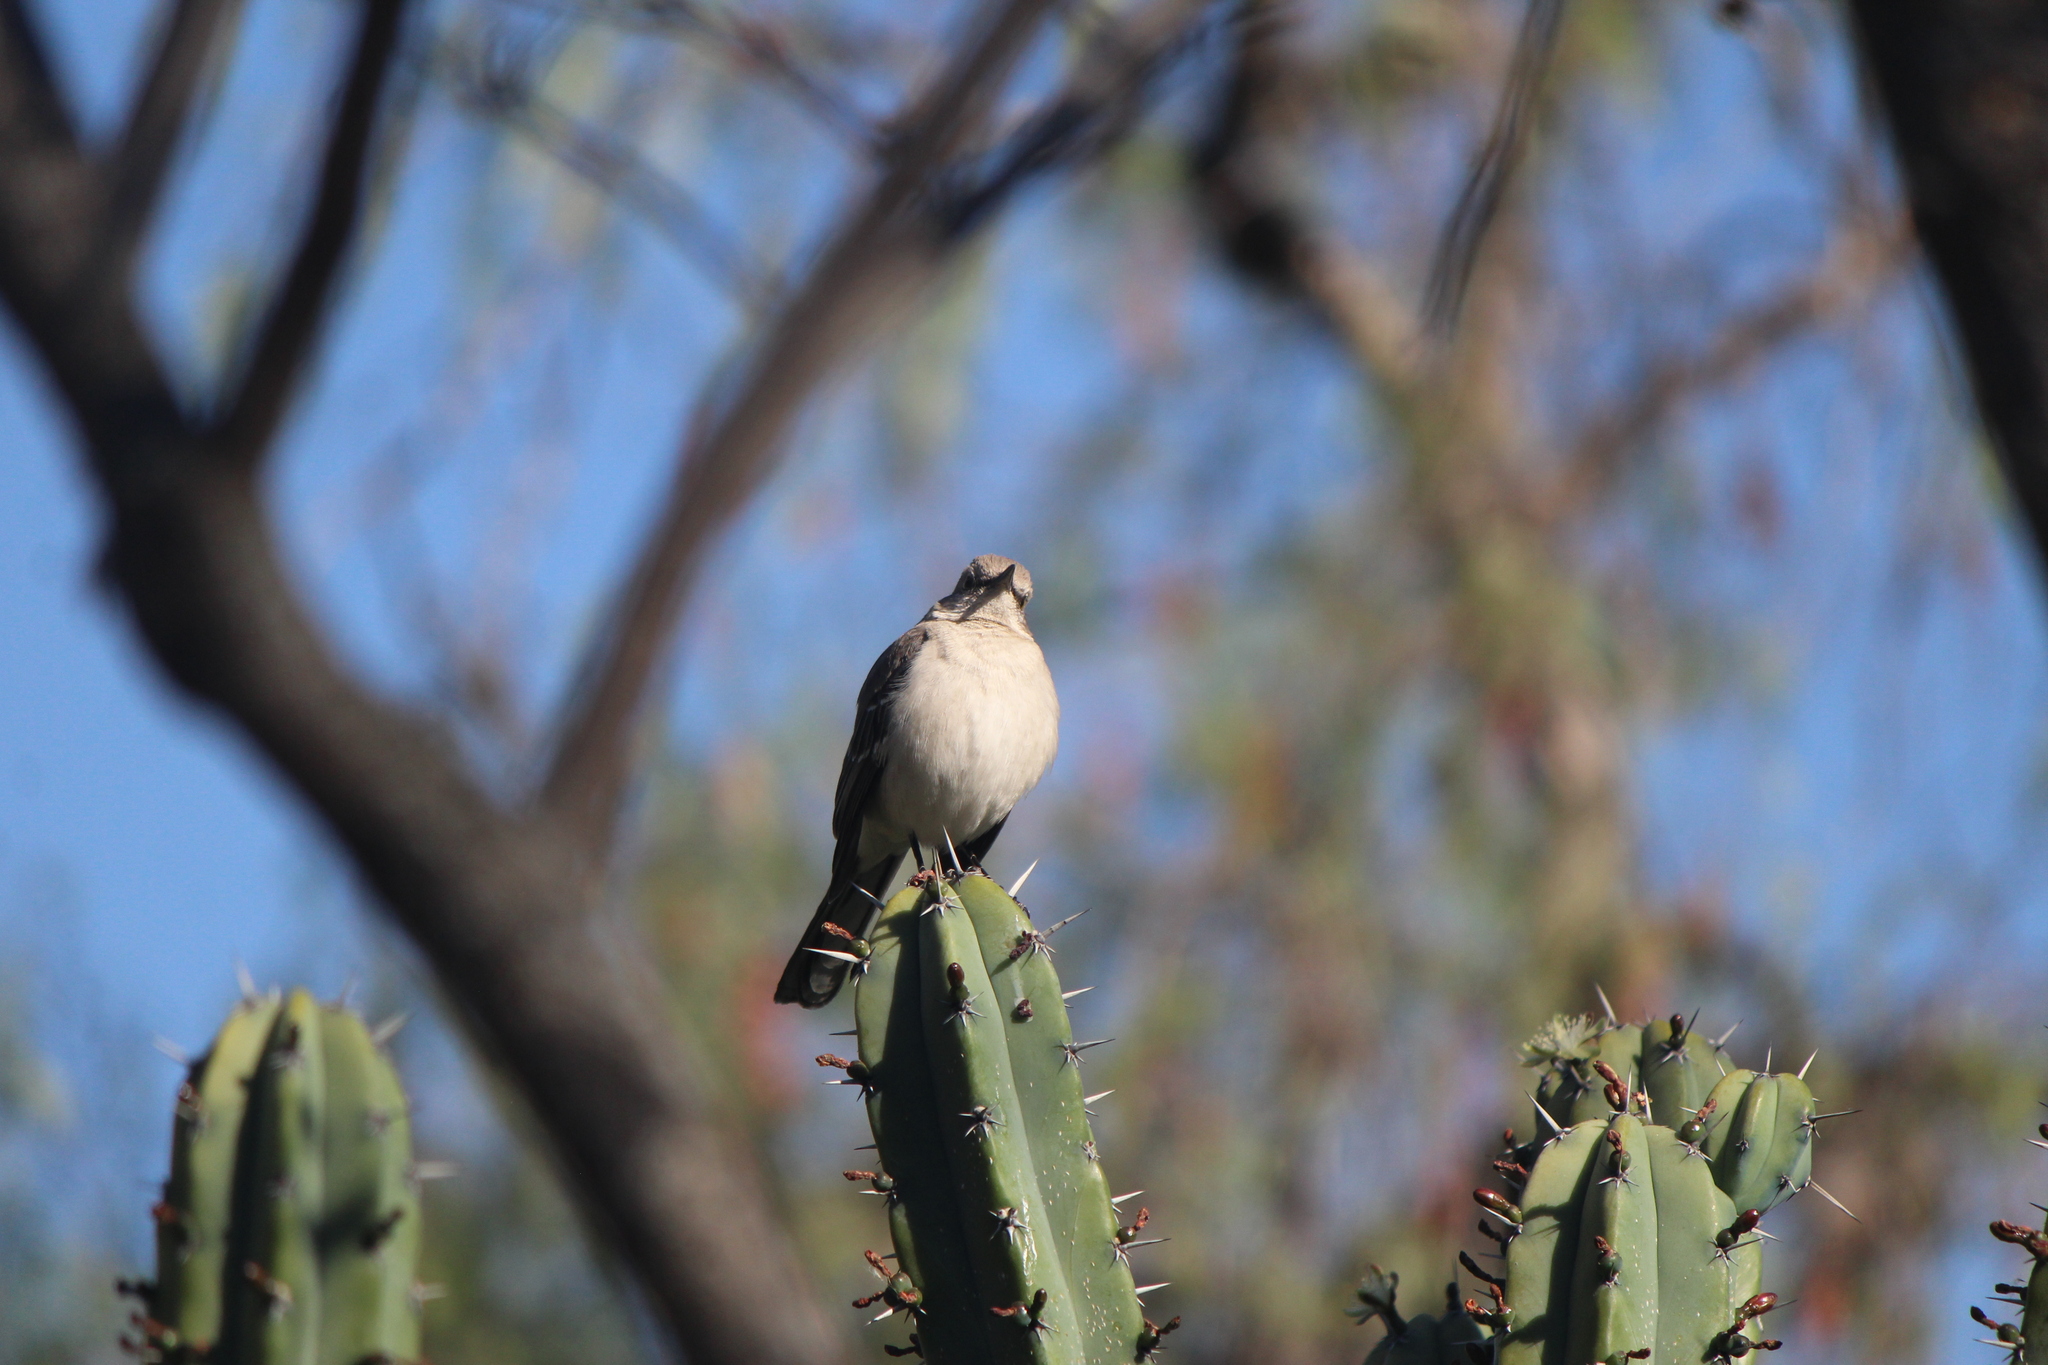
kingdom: Animalia
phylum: Chordata
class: Aves
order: Passeriformes
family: Mimidae
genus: Mimus
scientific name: Mimus polyglottos
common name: Northern mockingbird
